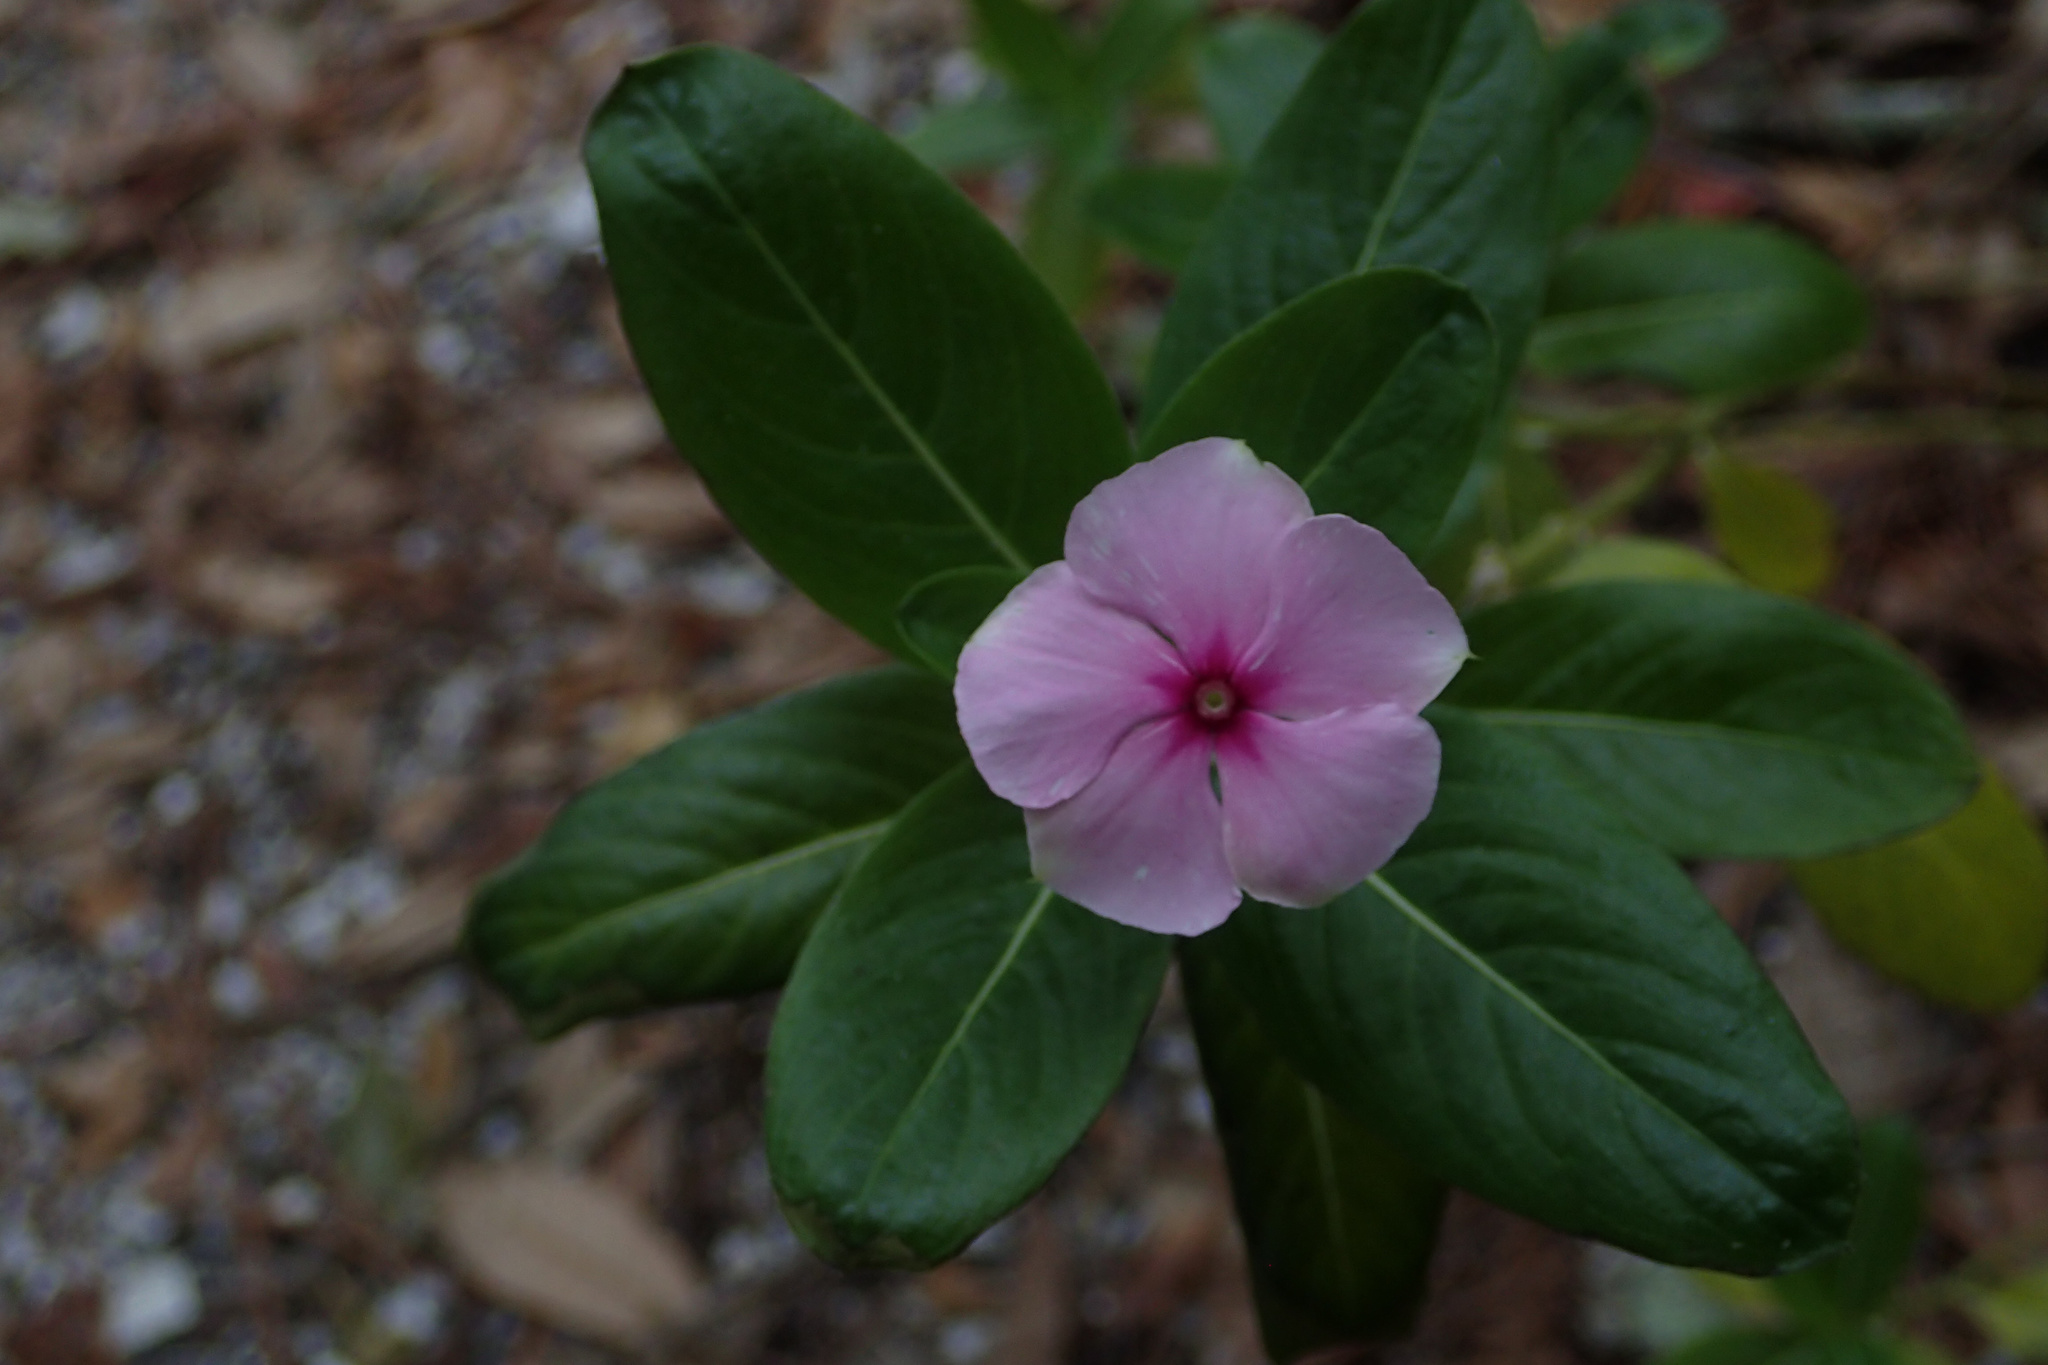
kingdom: Plantae
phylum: Tracheophyta
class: Magnoliopsida
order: Gentianales
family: Apocynaceae
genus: Catharanthus
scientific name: Catharanthus roseus
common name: Madagascar periwinkle
